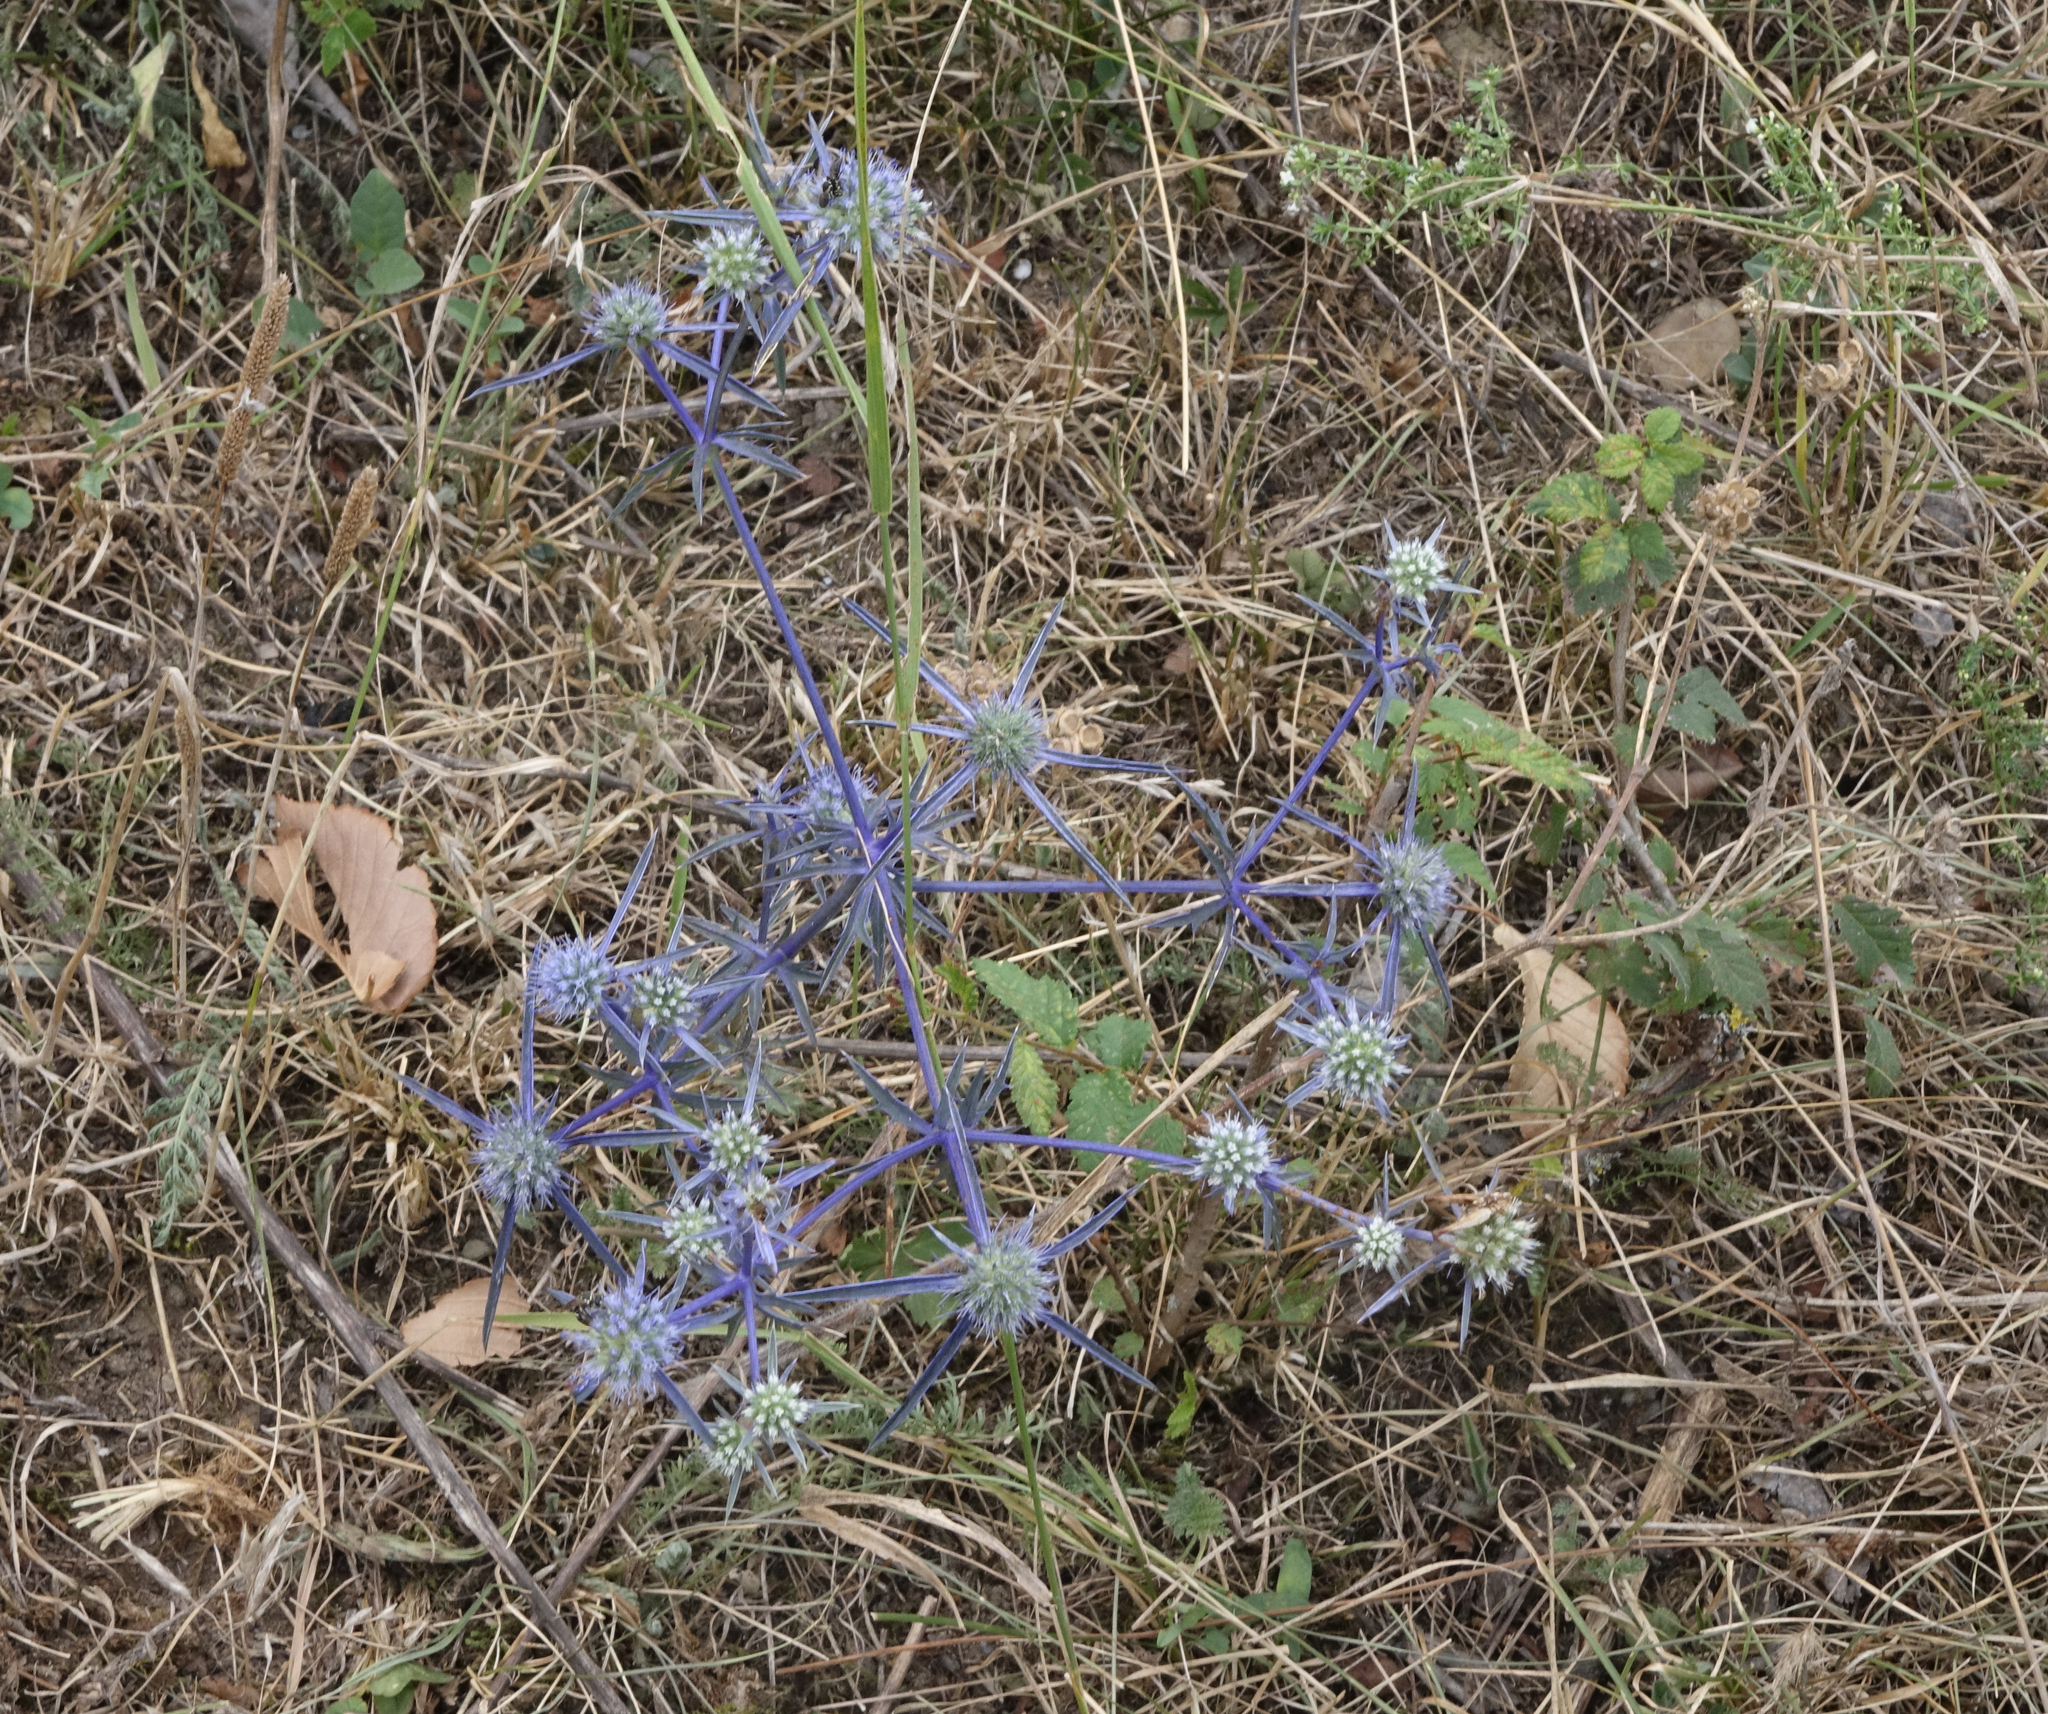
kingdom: Plantae
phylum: Tracheophyta
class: Magnoliopsida
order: Apiales
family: Apiaceae
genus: Eryngium
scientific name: Eryngium caeruleum
